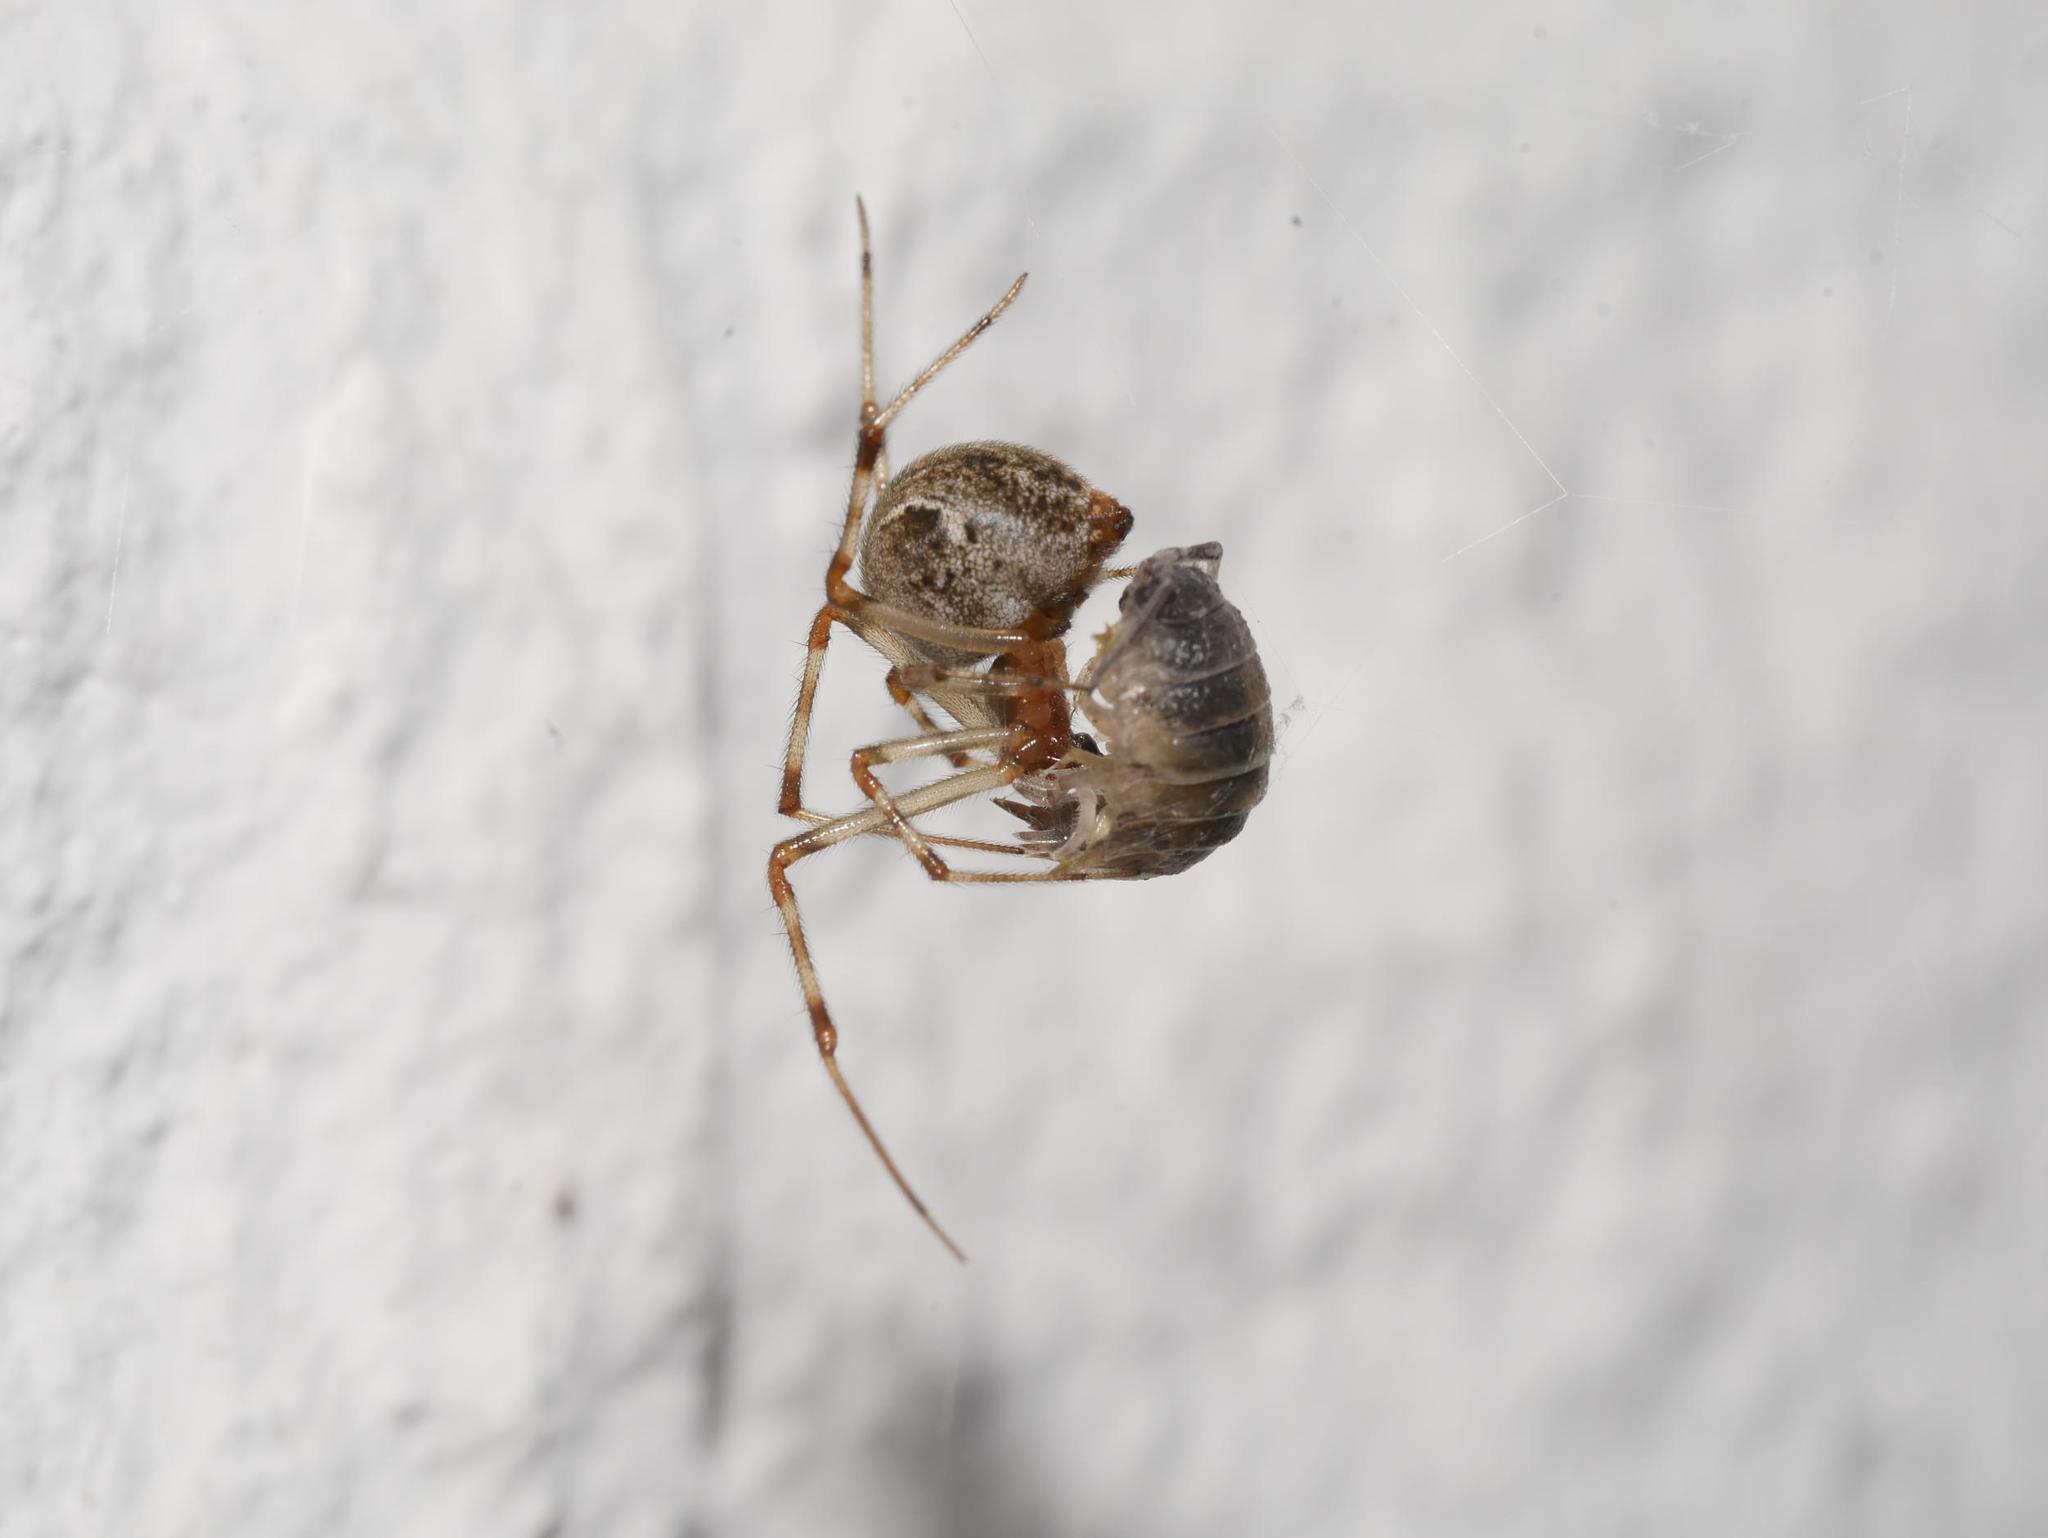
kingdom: Animalia
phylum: Arthropoda
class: Arachnida
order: Araneae
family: Theridiidae
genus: Parasteatoda
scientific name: Parasteatoda tepidariorum
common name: Common house spider
